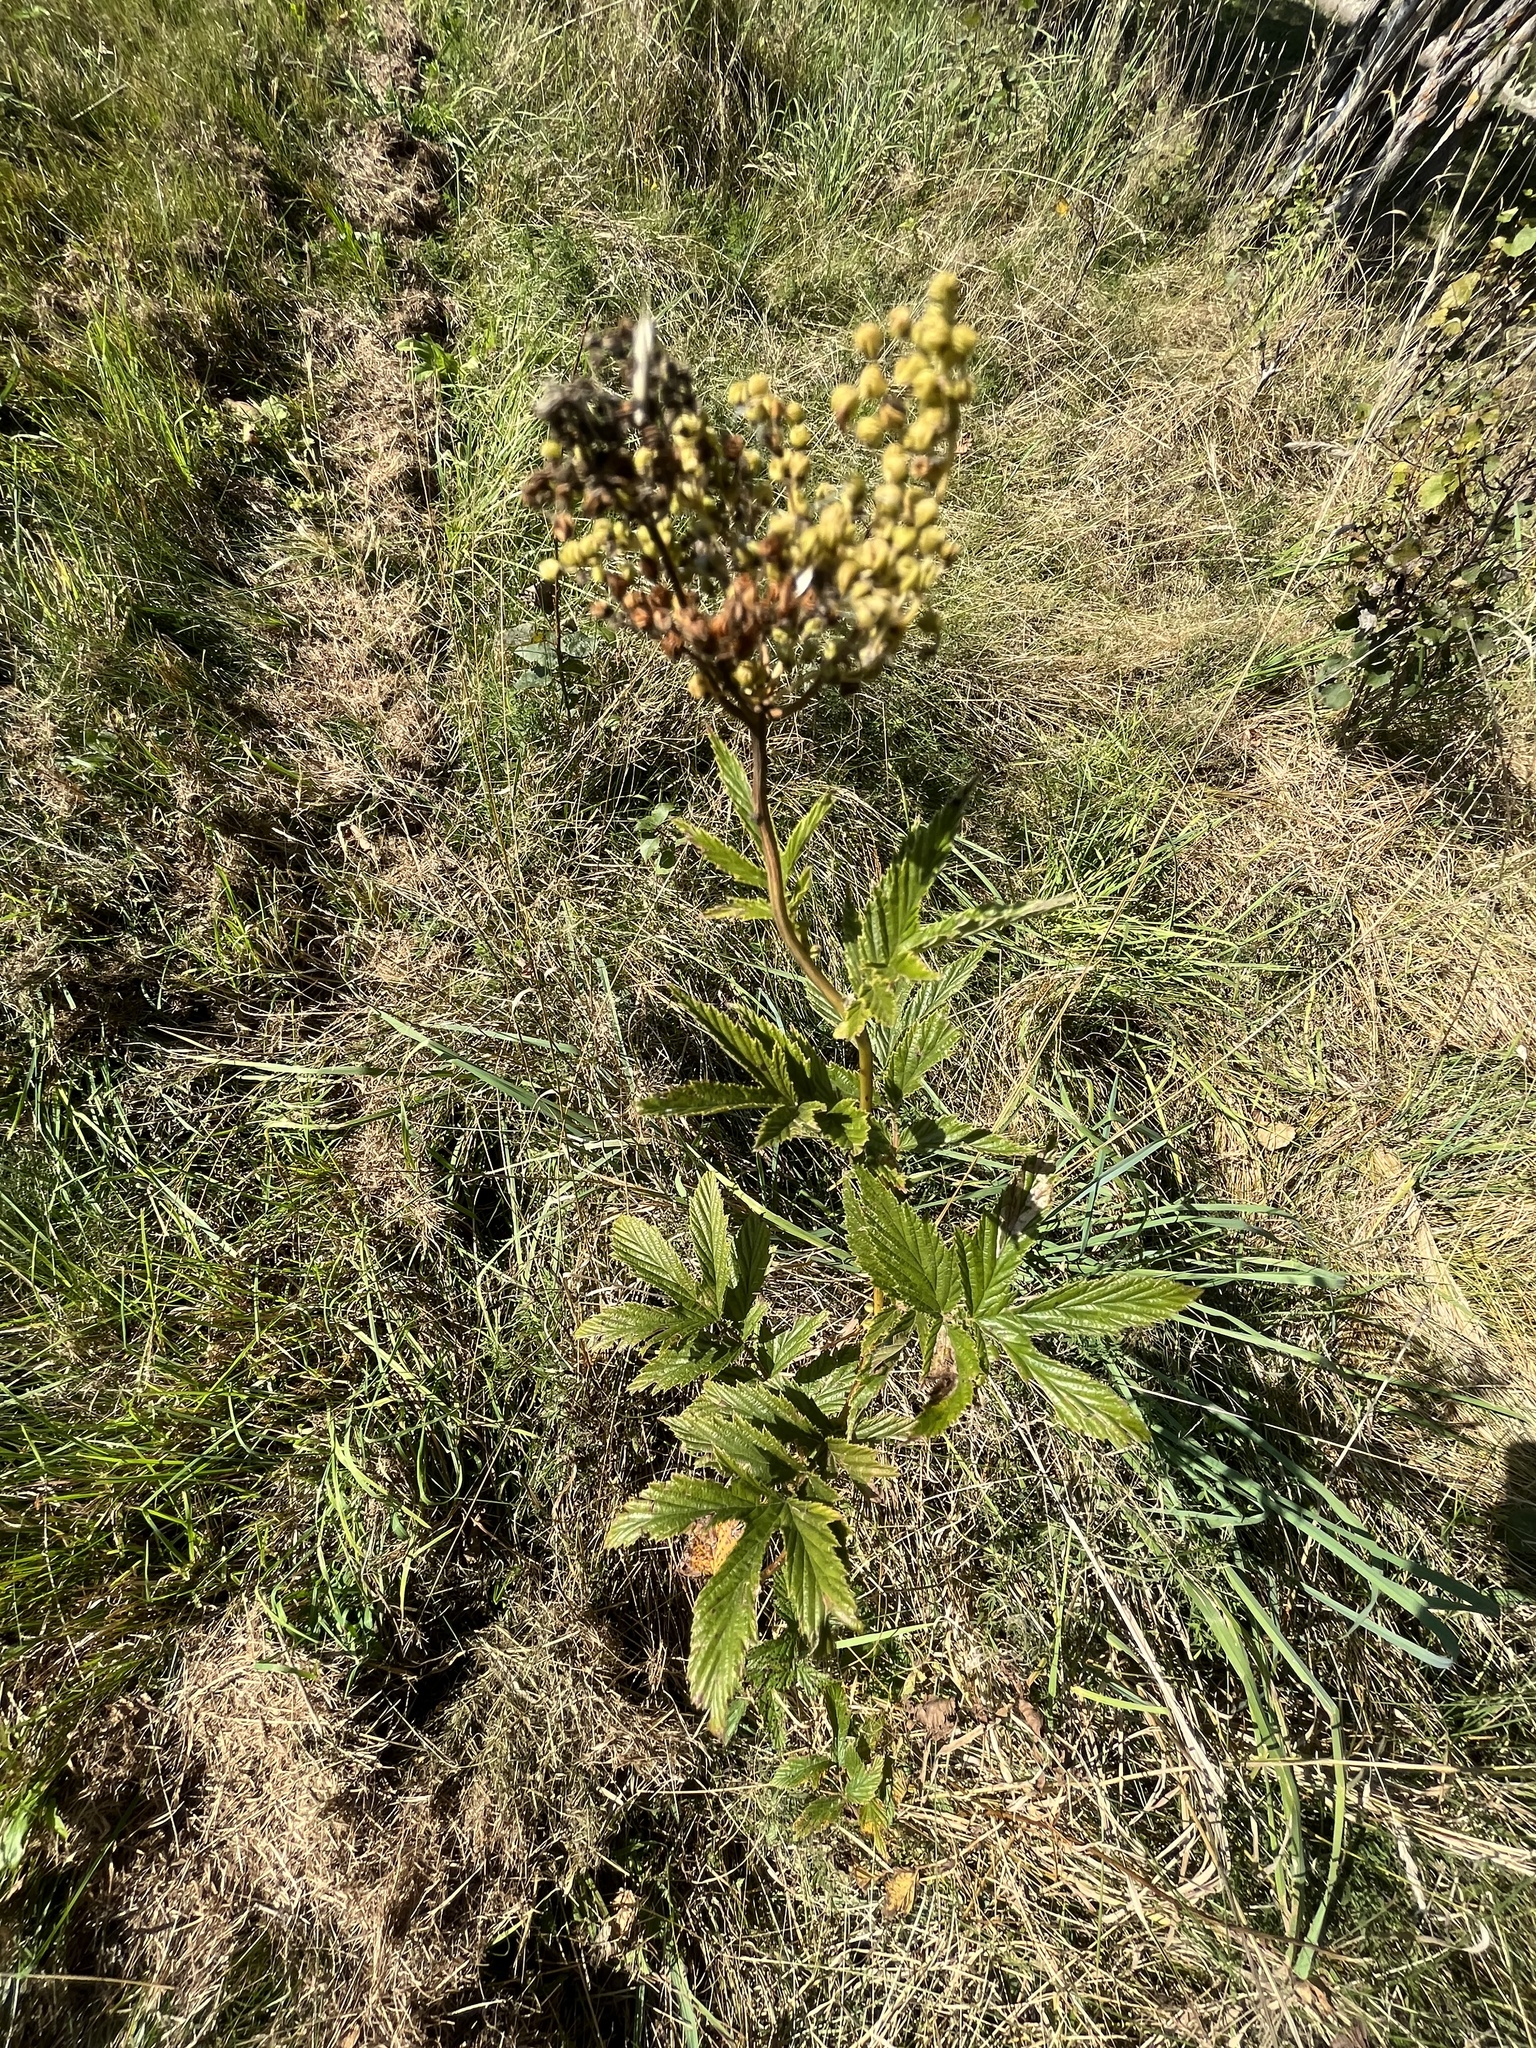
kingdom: Plantae
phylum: Tracheophyta
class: Magnoliopsida
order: Rosales
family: Rosaceae
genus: Filipendula
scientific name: Filipendula ulmaria
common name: Meadowsweet
